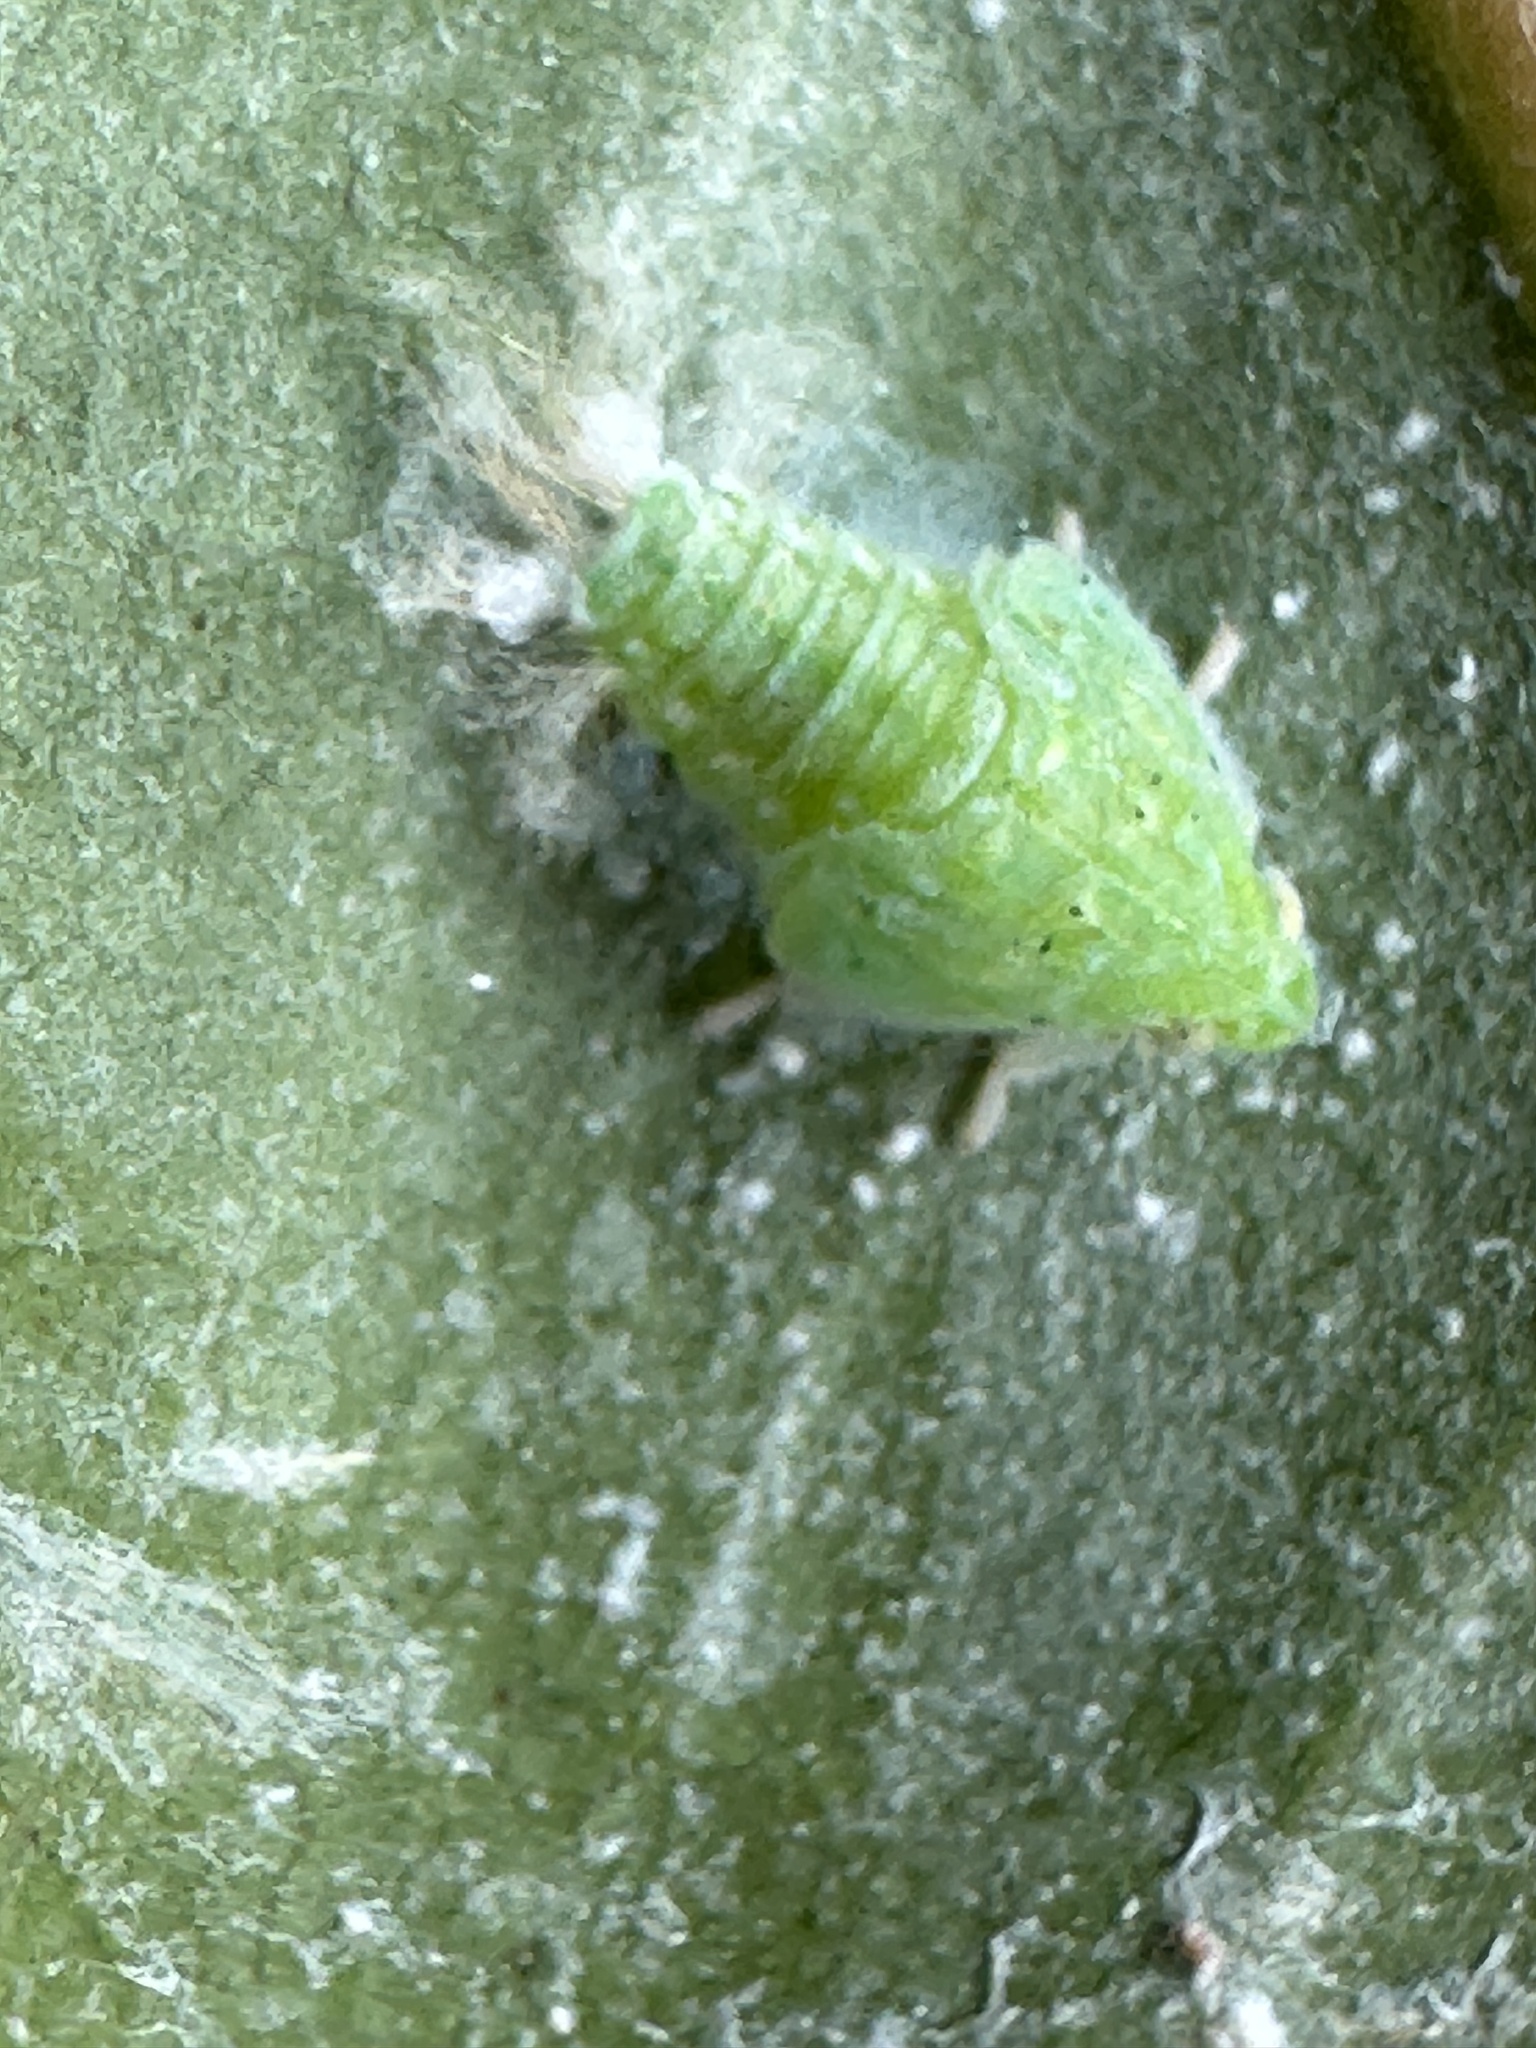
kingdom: Animalia
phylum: Arthropoda
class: Insecta
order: Hemiptera
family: Flatidae
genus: Siphanta
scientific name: Siphanta acuta
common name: Torpedo bug
